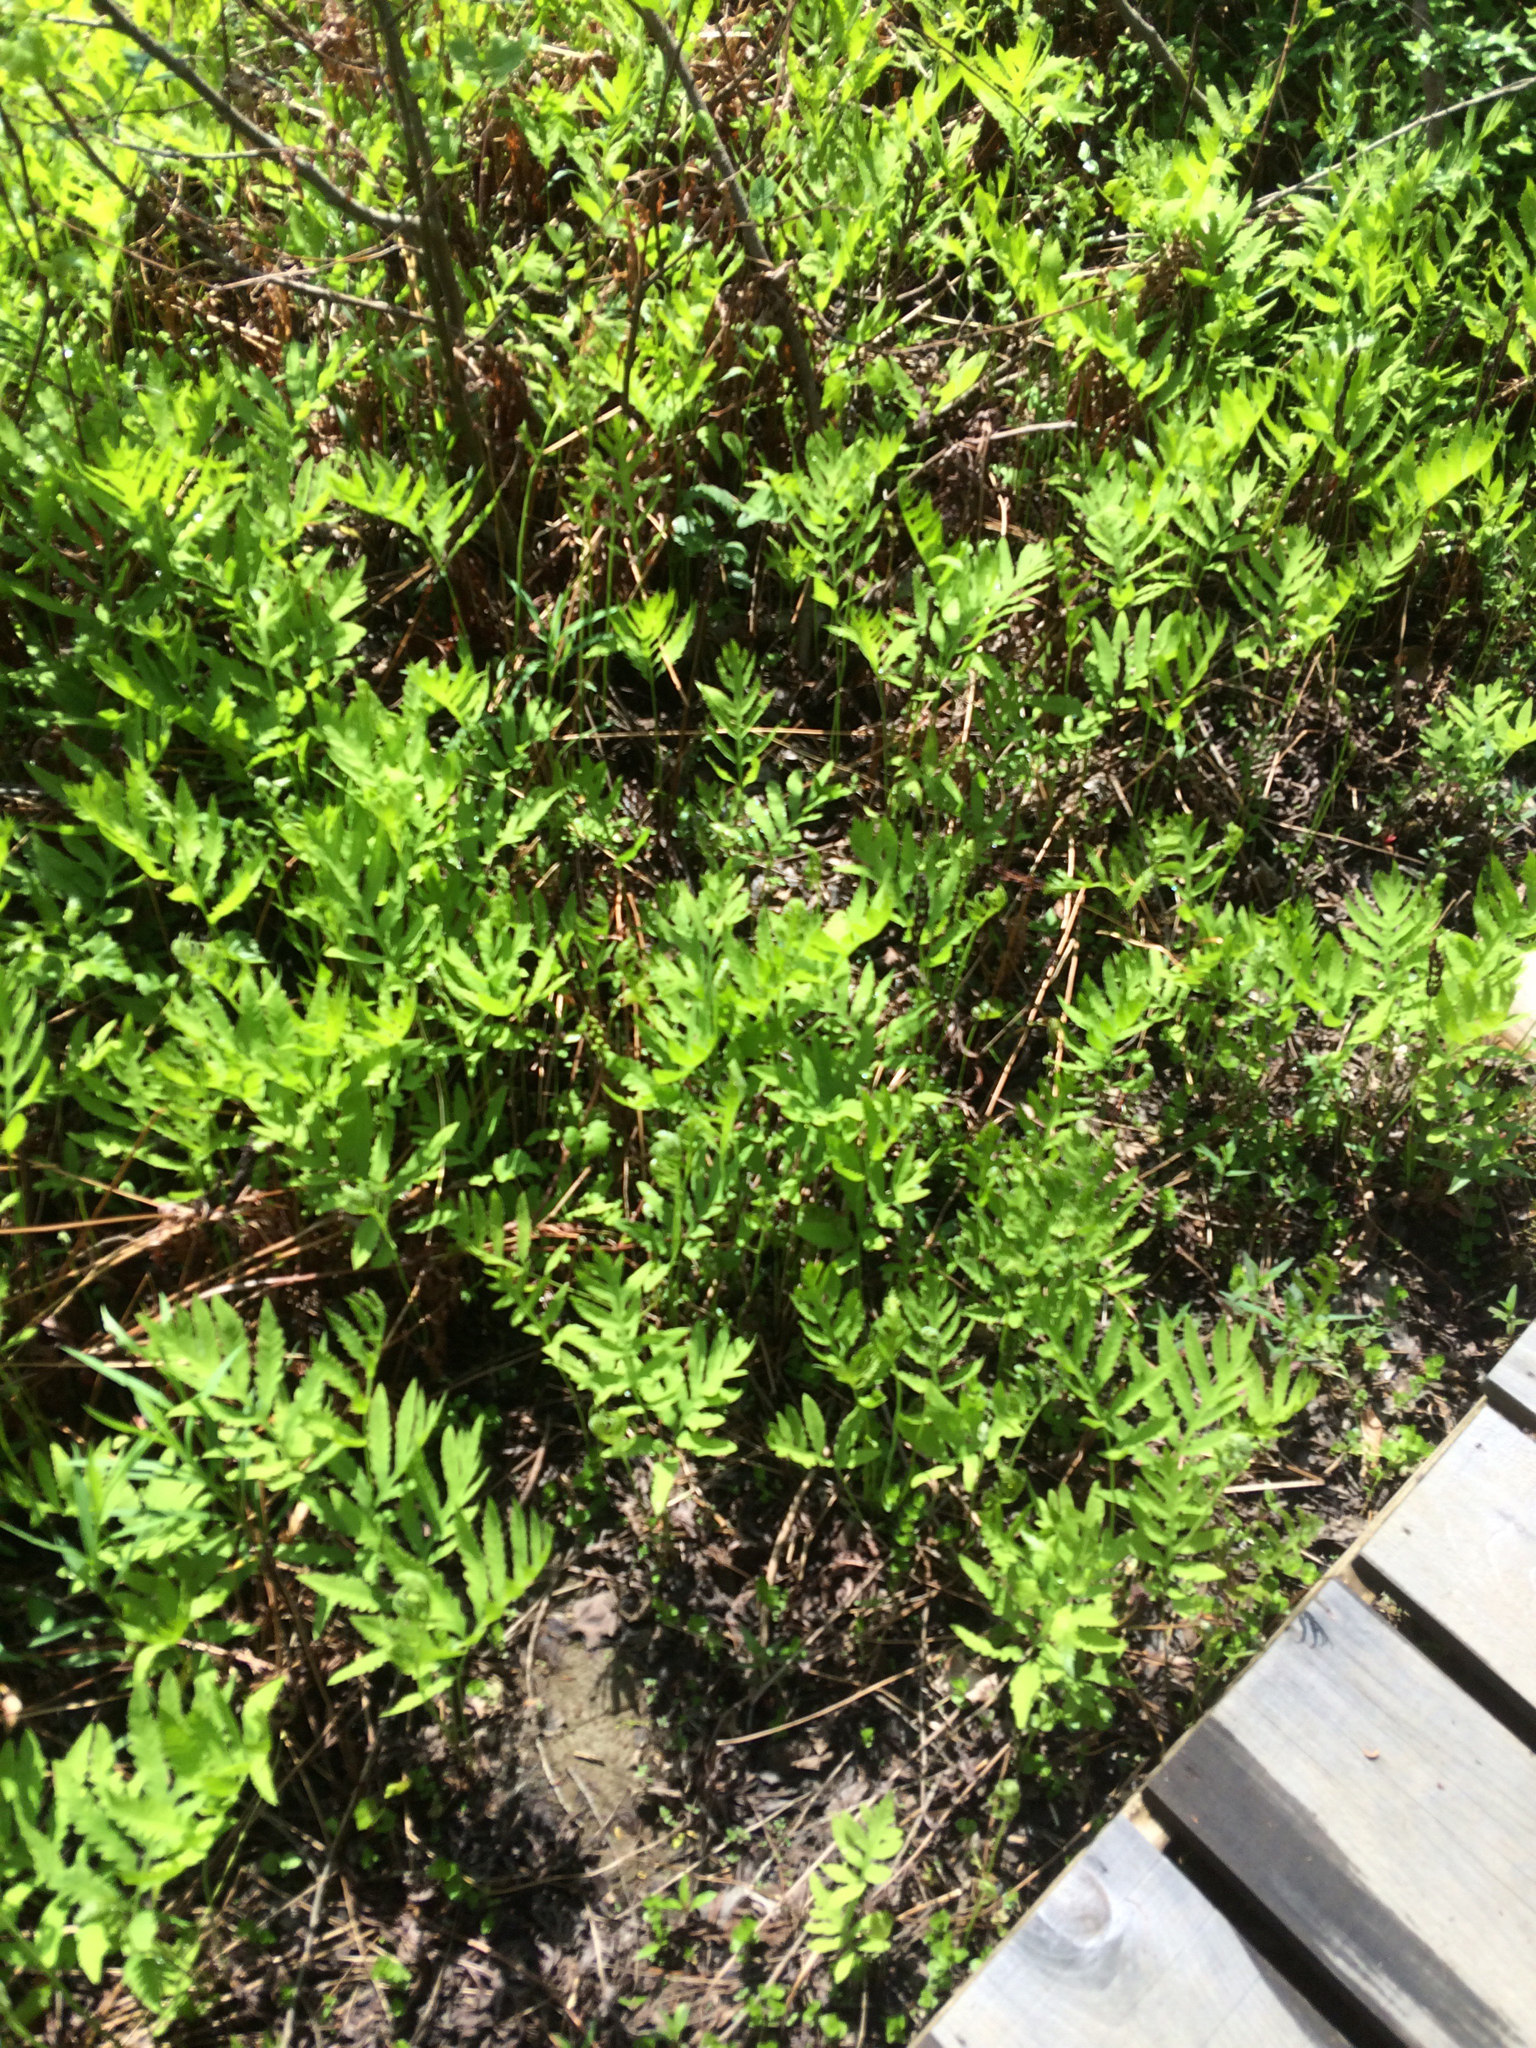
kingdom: Plantae
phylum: Tracheophyta
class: Polypodiopsida
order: Polypodiales
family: Onocleaceae
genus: Onoclea
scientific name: Onoclea sensibilis
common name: Sensitive fern
